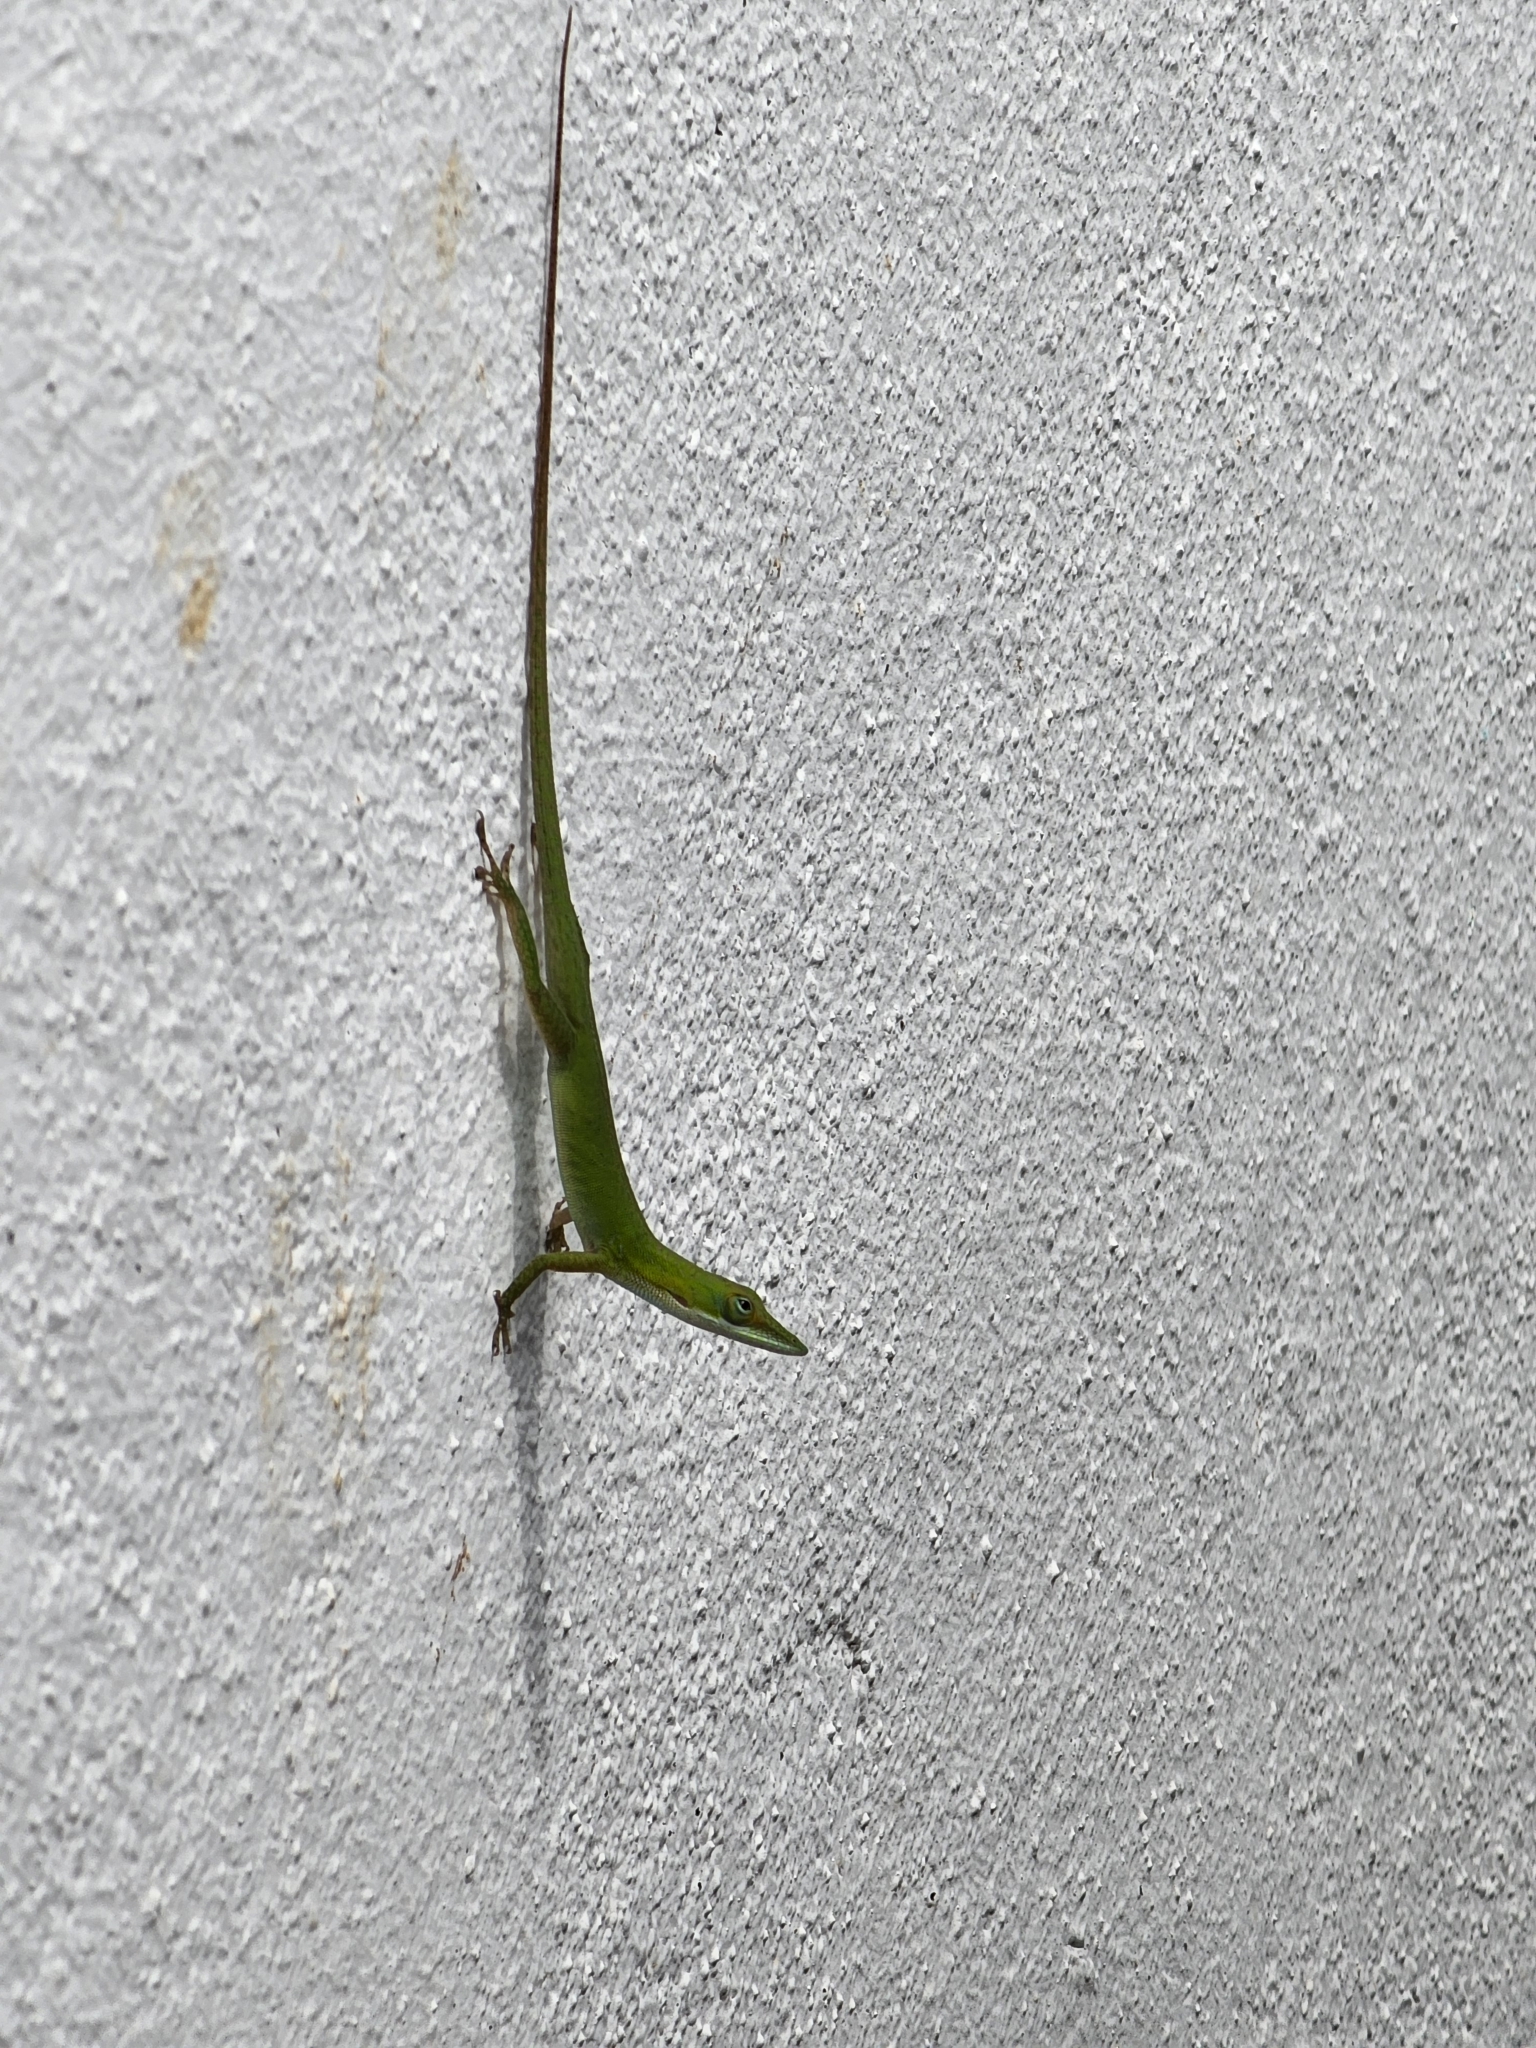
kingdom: Animalia
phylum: Chordata
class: Squamata
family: Dactyloidae
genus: Anolis
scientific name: Anolis porcatus
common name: Cuban green anole
